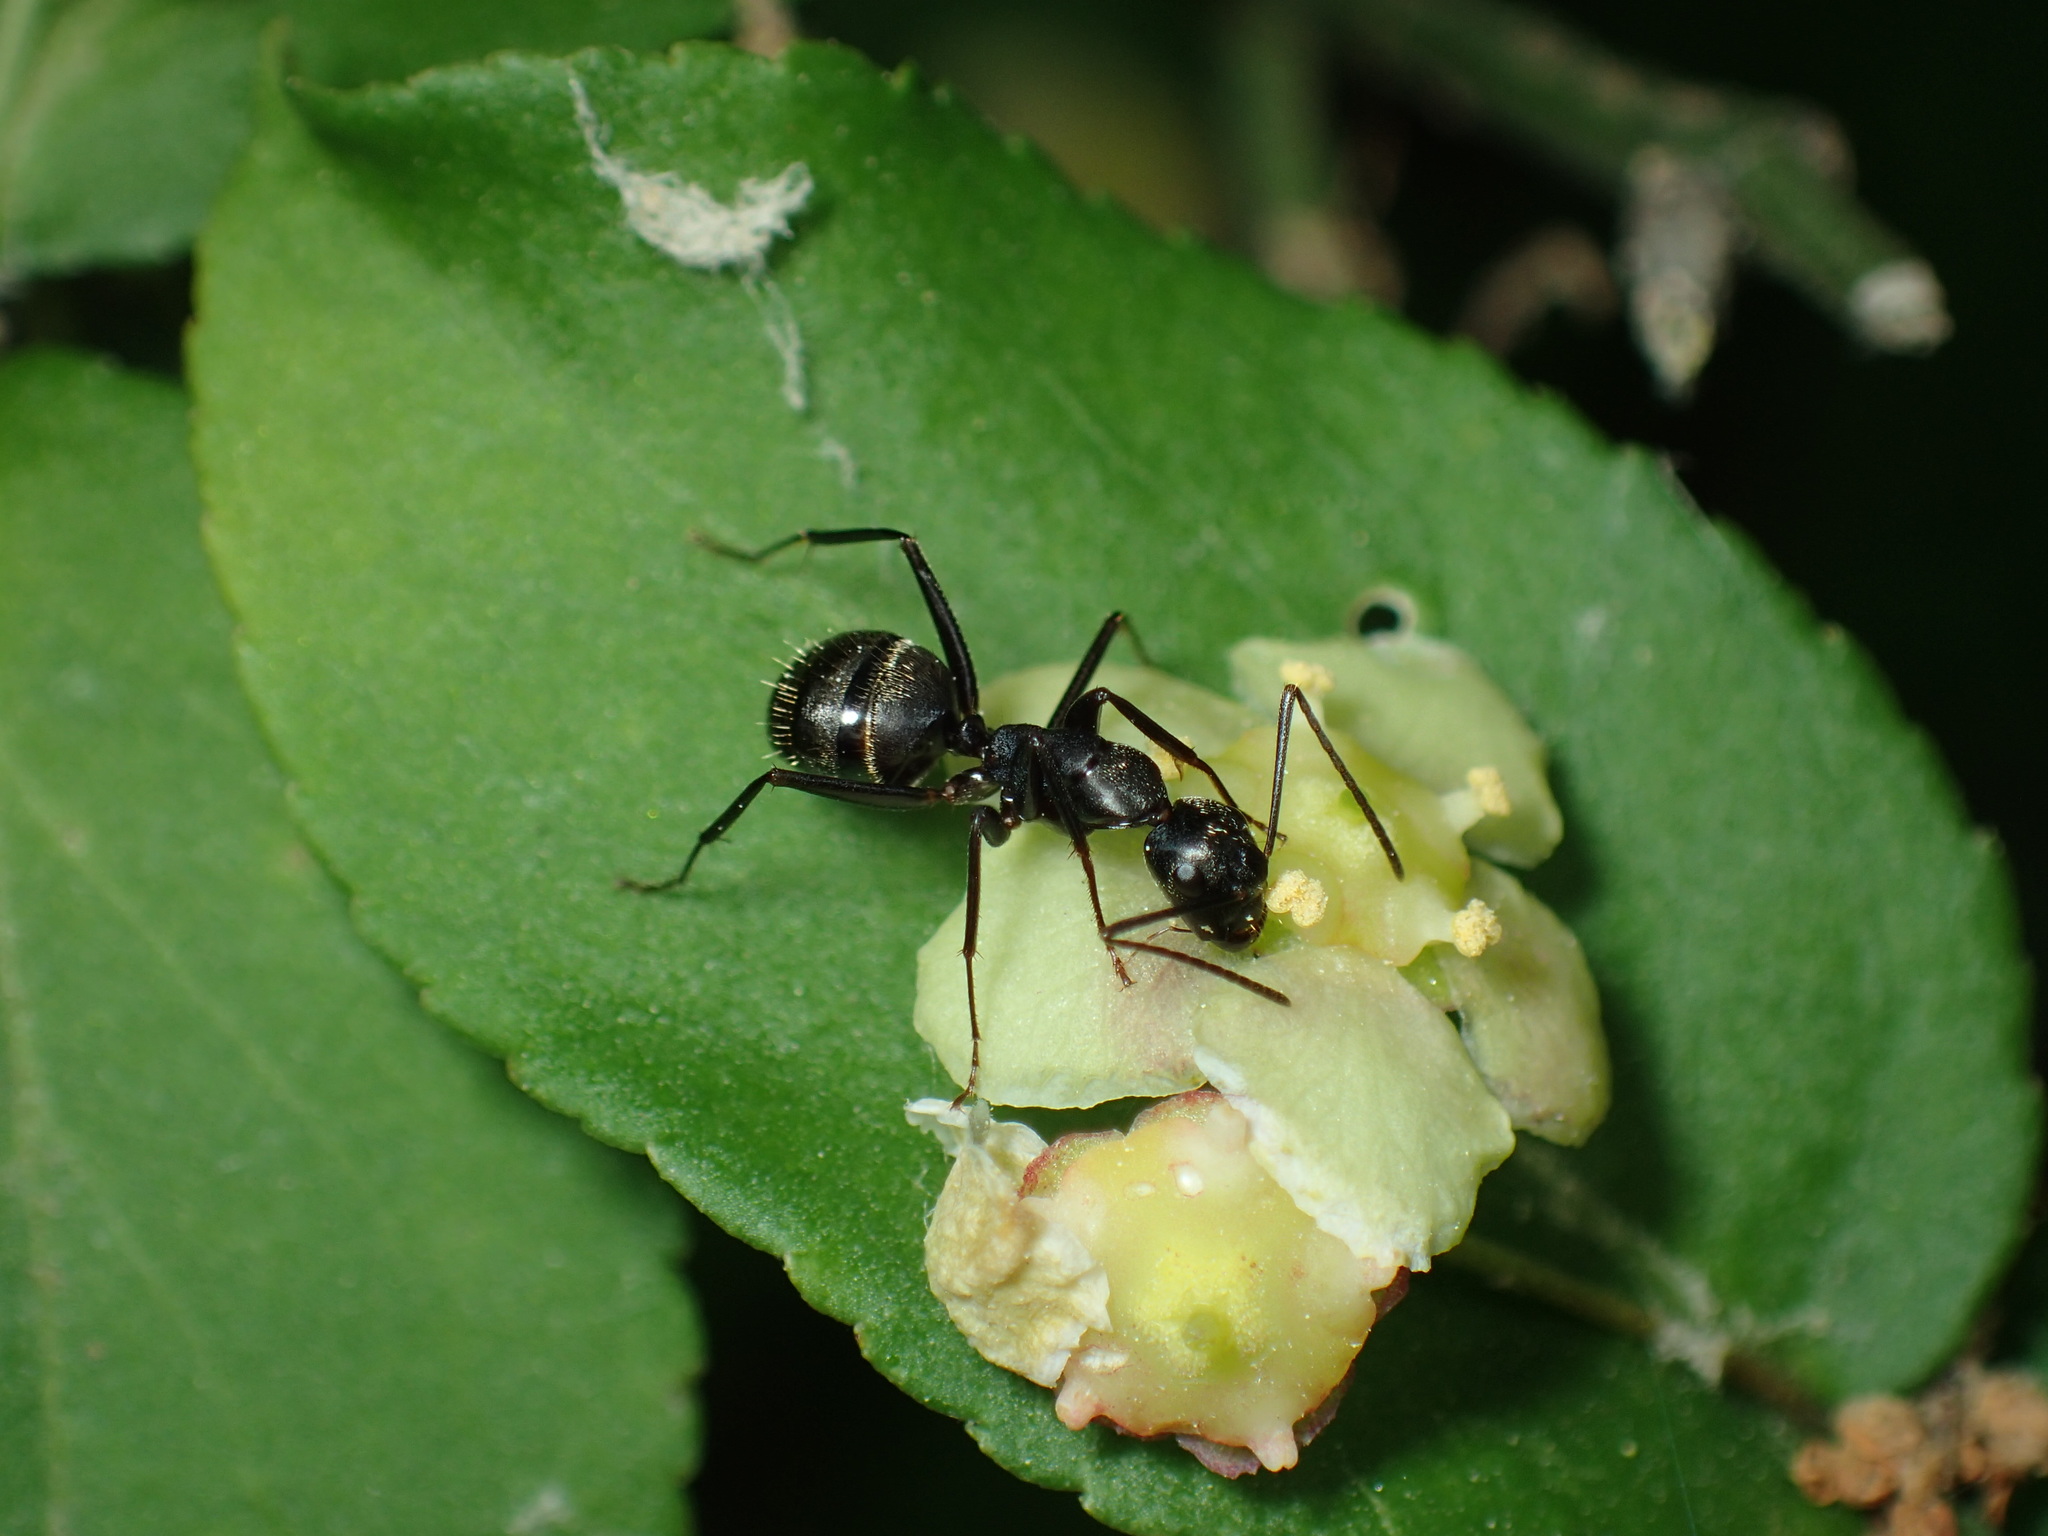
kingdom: Animalia
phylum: Arthropoda
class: Insecta
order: Hymenoptera
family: Formicidae
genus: Camponotus
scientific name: Camponotus pennsylvanicus
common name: Black carpenter ant
